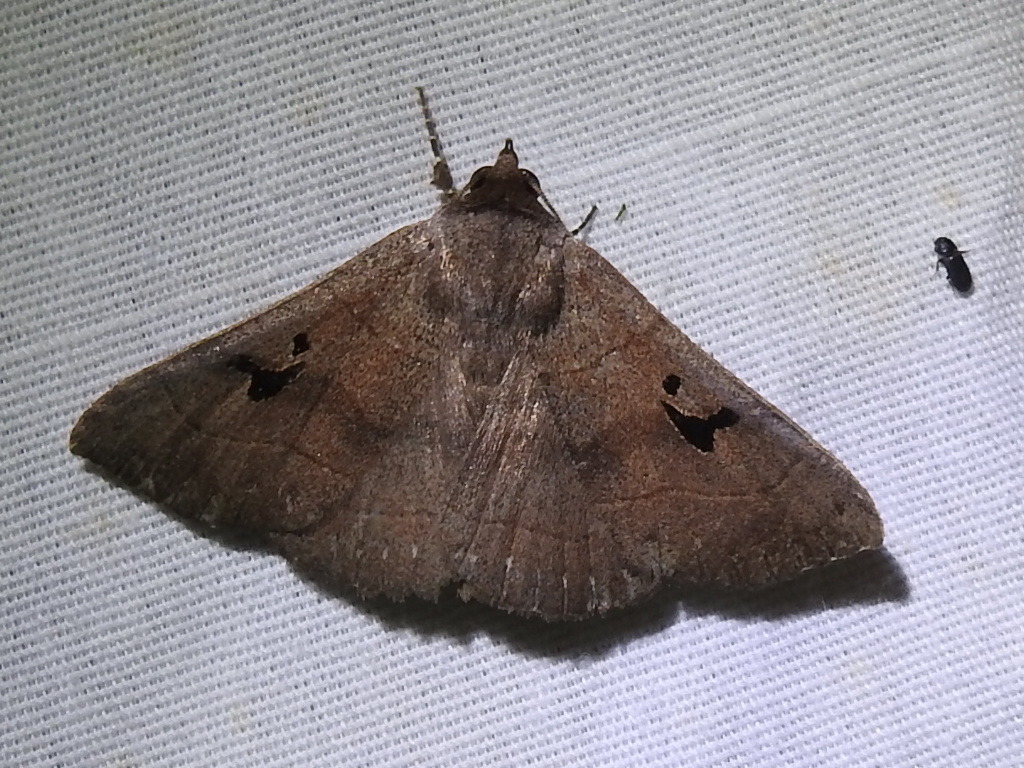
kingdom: Animalia
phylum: Arthropoda
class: Insecta
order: Lepidoptera
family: Erebidae
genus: Panopoda
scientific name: Panopoda carneicosta
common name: Brown panopoda moth
